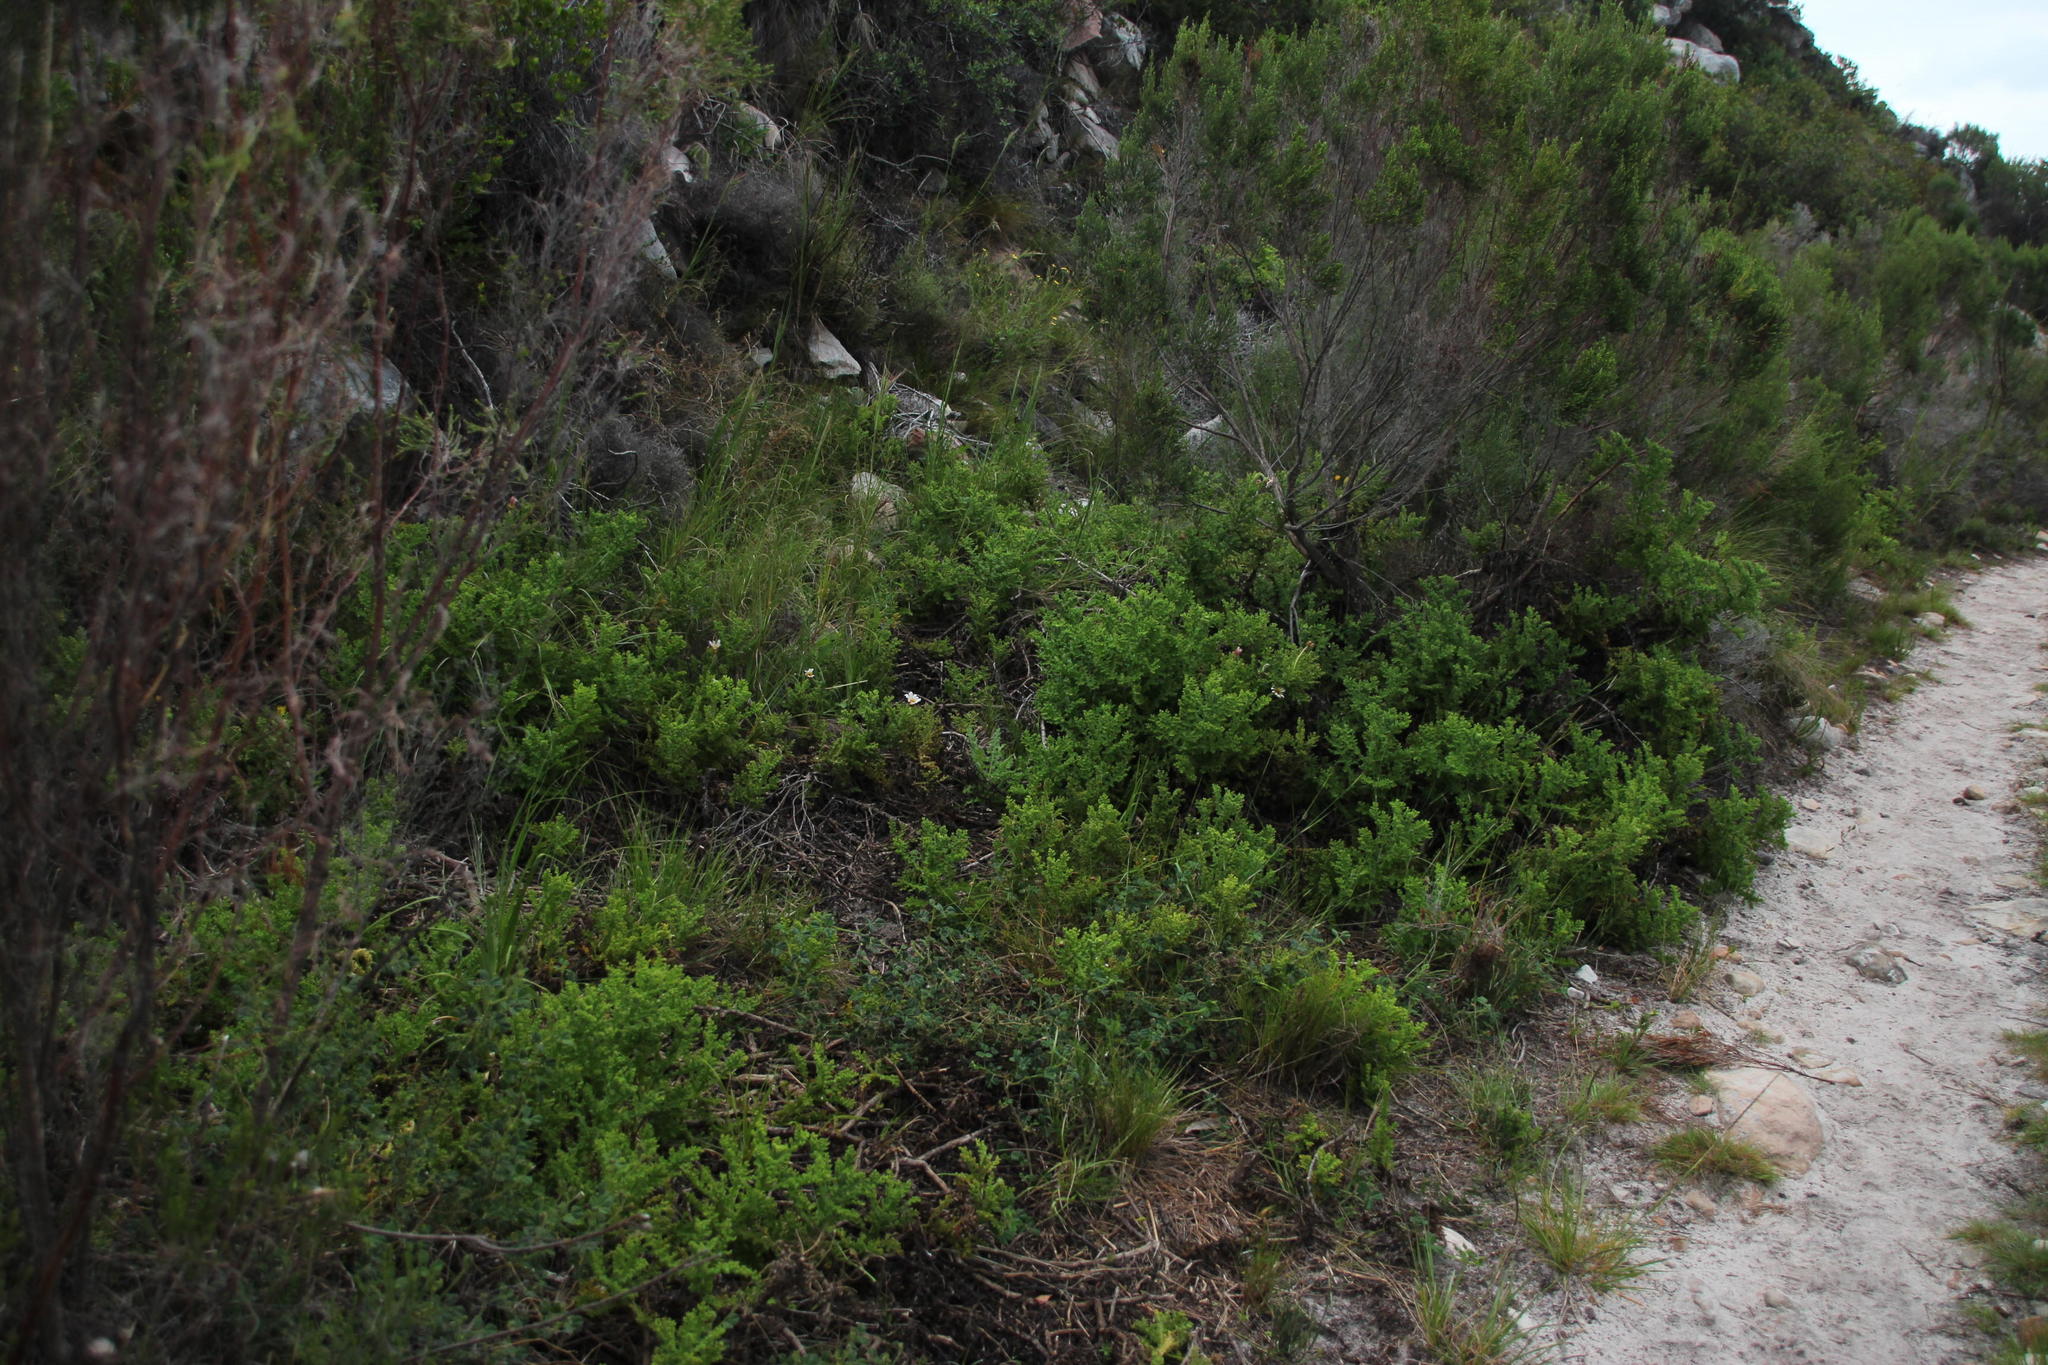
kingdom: Plantae
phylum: Tracheophyta
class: Magnoliopsida
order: Asterales
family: Asteraceae
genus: Arctotis
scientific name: Arctotis aspera
